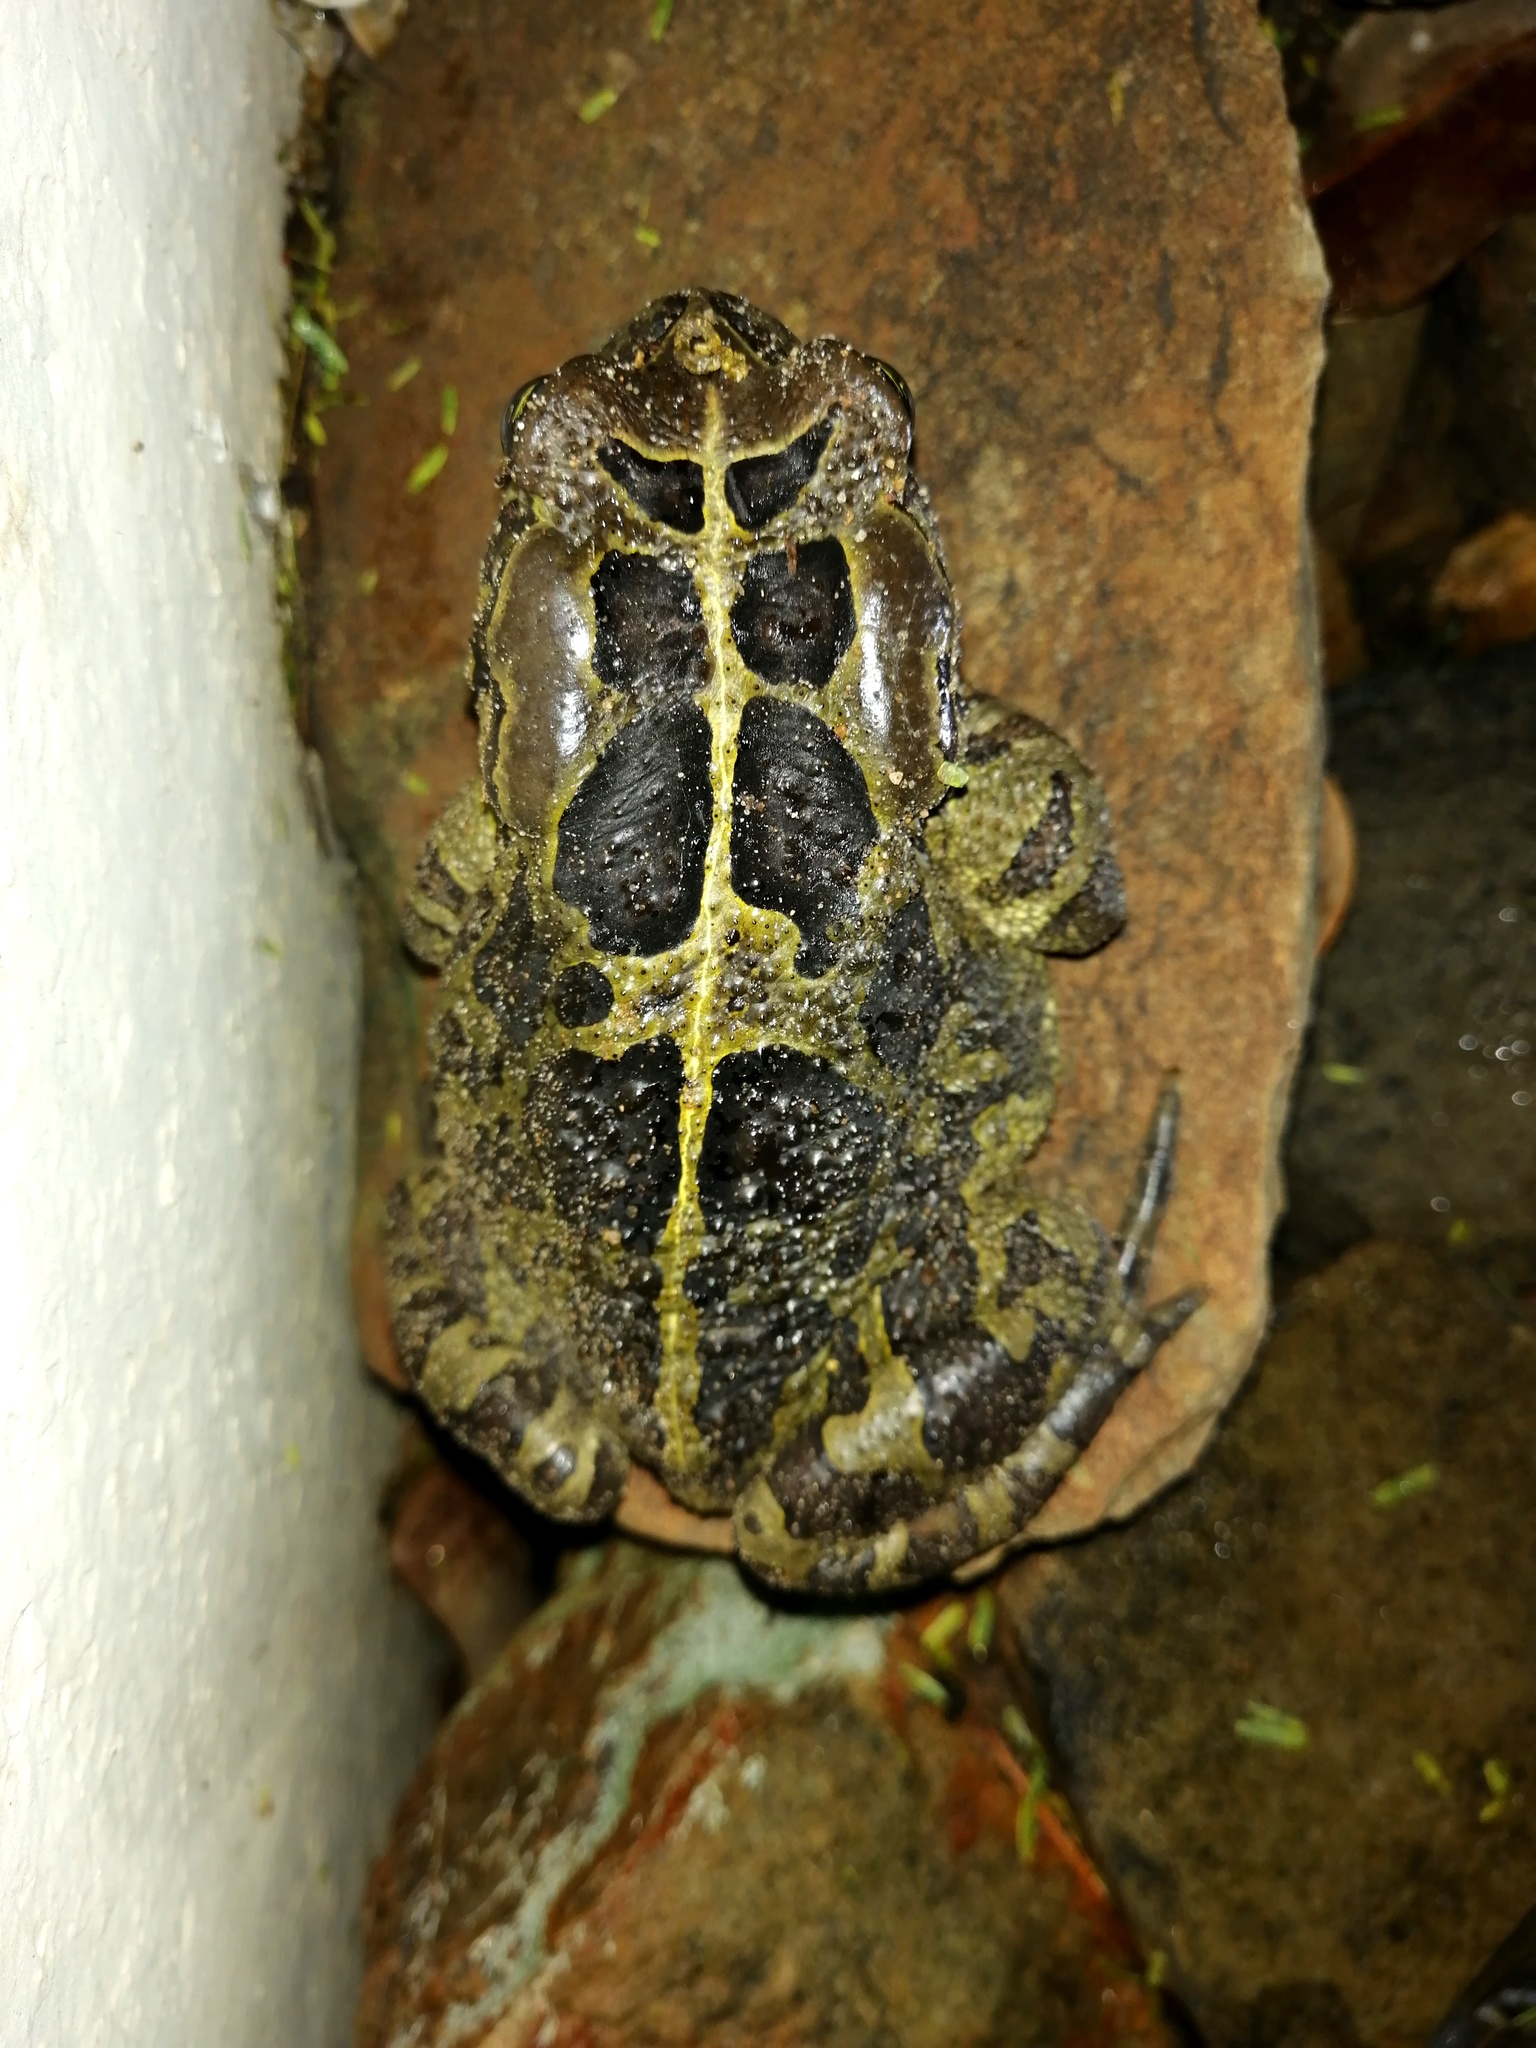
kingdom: Animalia
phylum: Chordata
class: Amphibia
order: Anura
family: Bufonidae
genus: Sclerophrys
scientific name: Sclerophrys pantherina
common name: Panther toad
